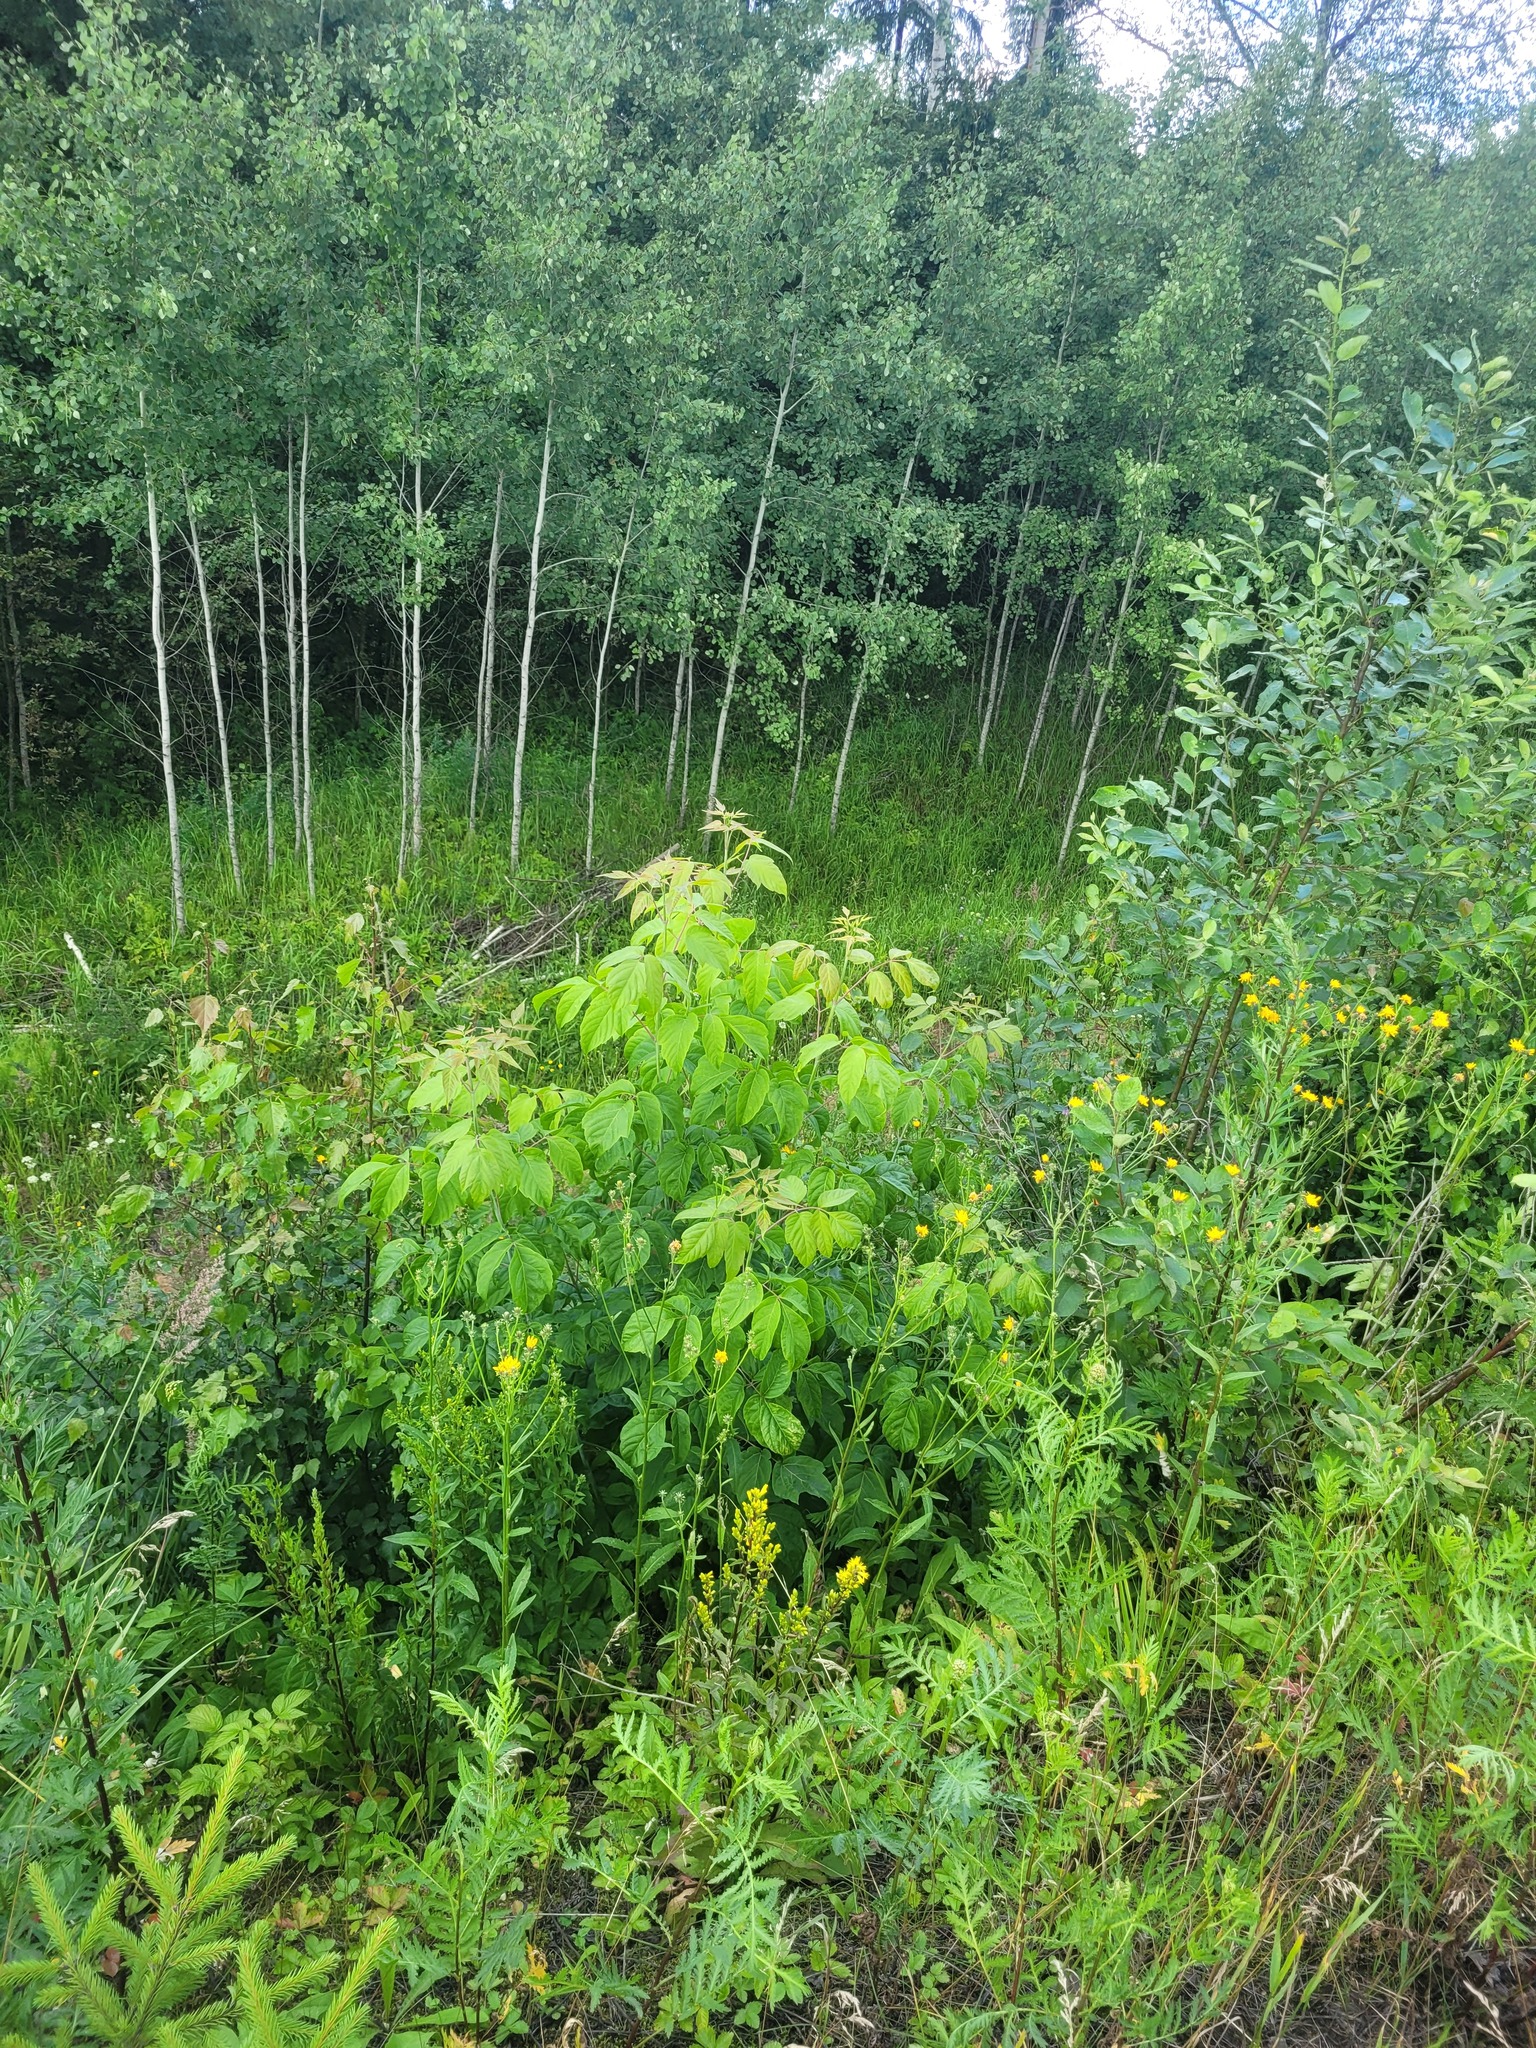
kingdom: Plantae
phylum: Tracheophyta
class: Magnoliopsida
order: Sapindales
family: Sapindaceae
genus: Acer
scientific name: Acer negundo
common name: Ashleaf maple
